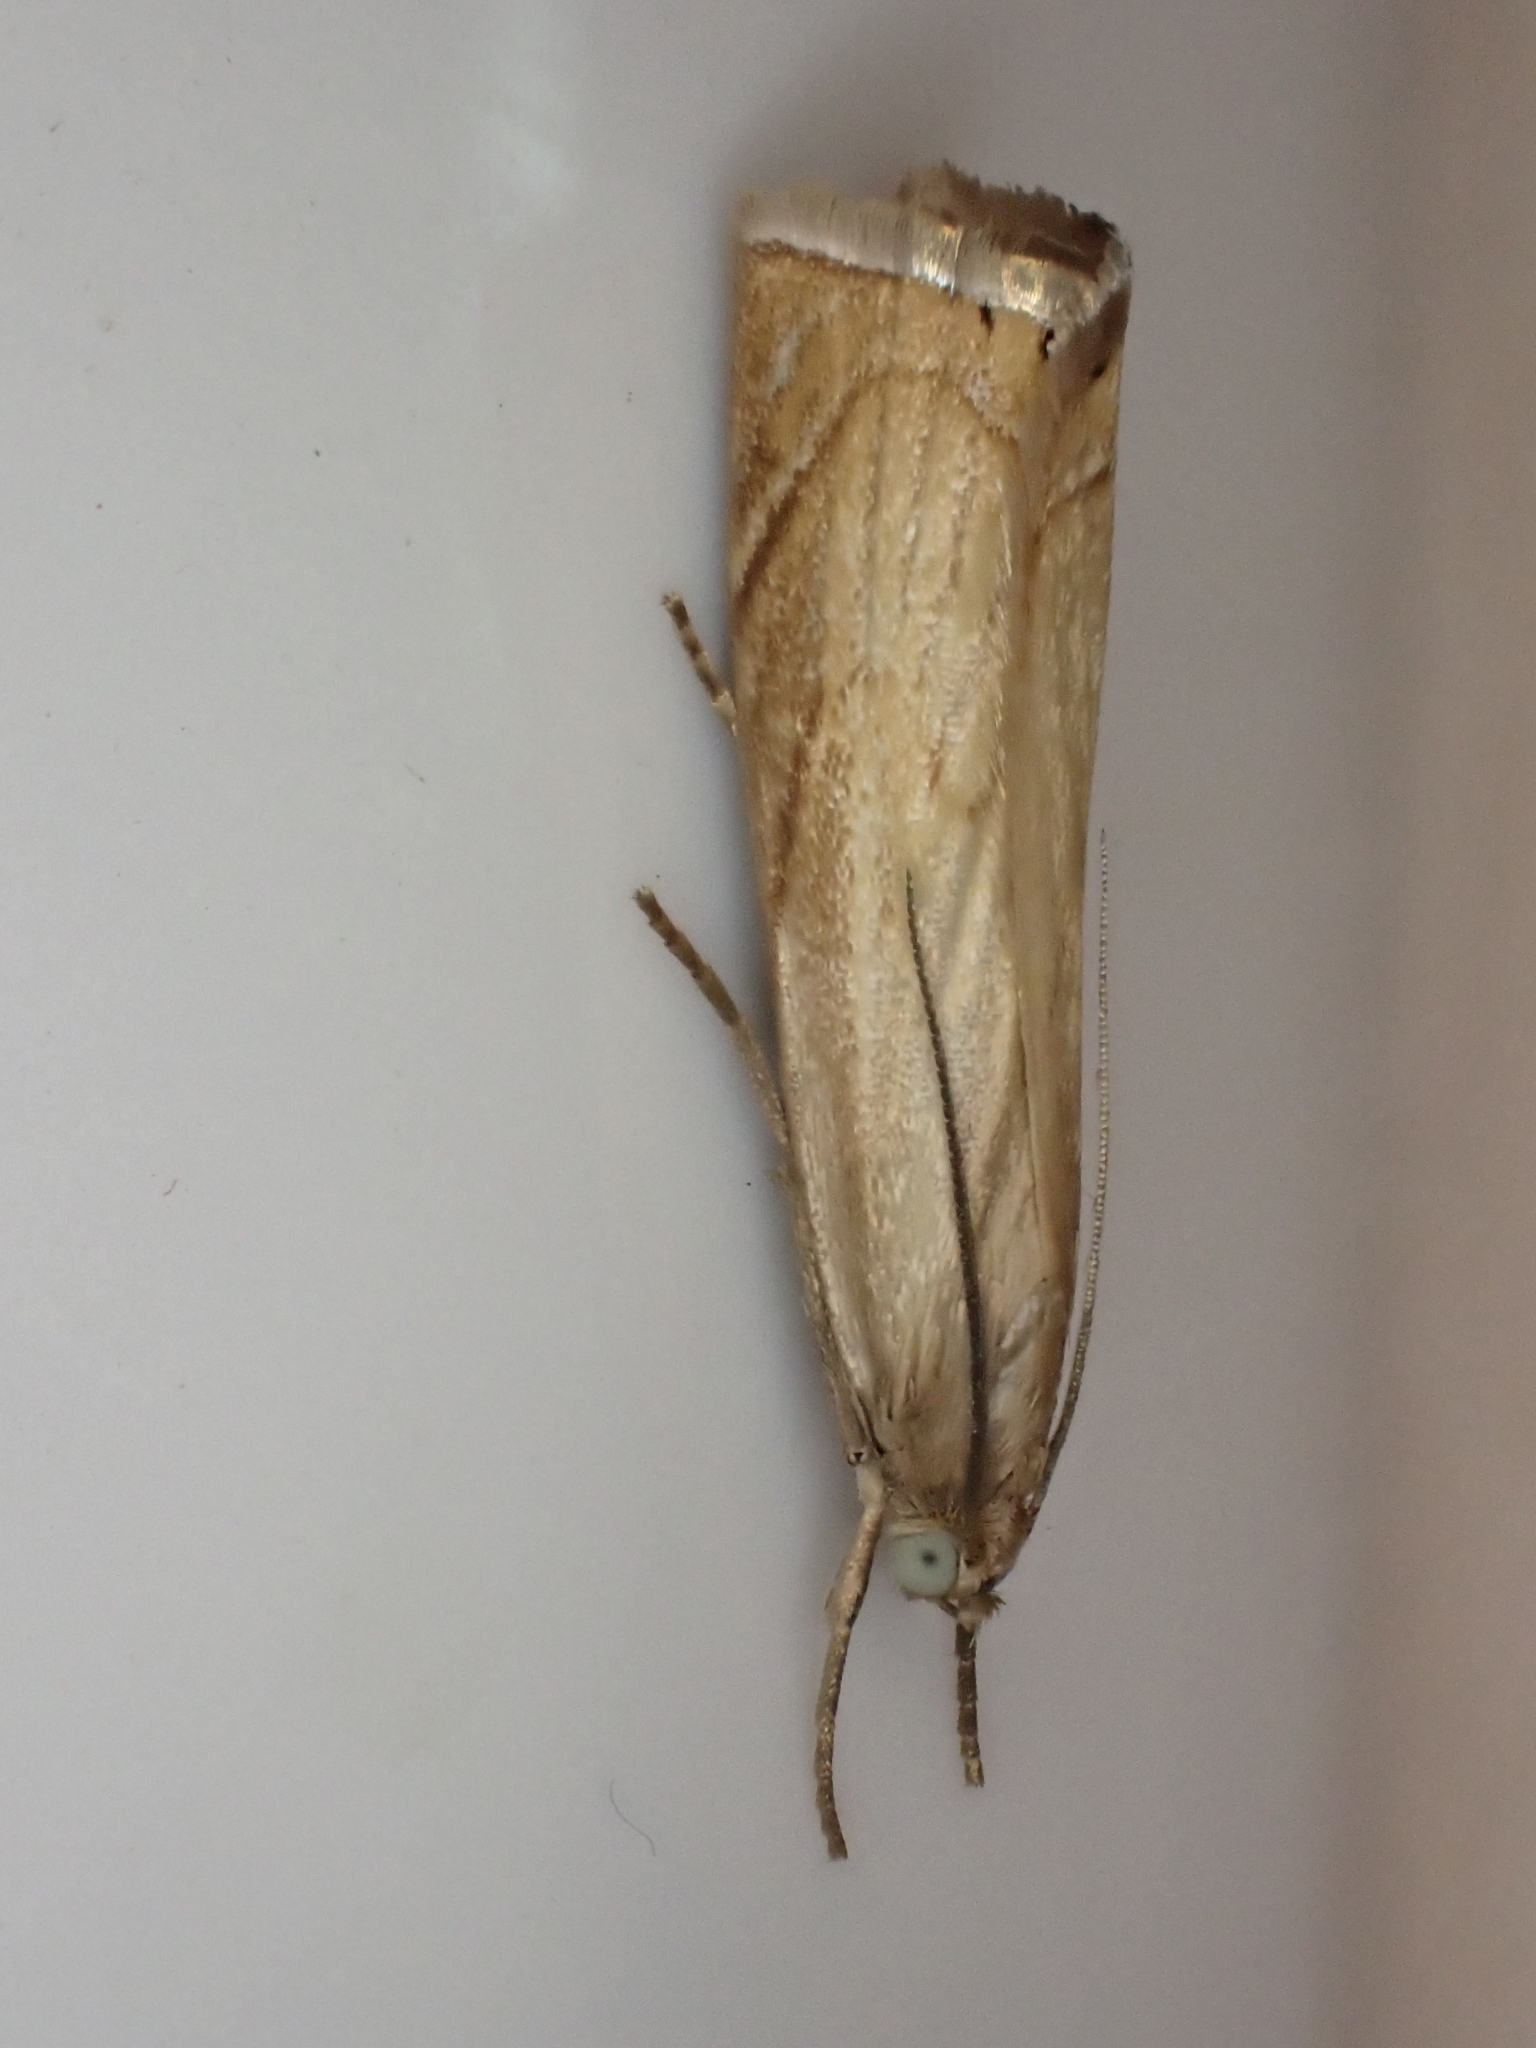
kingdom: Animalia
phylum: Arthropoda
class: Insecta
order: Lepidoptera
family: Crambidae
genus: Chrysoteuchia
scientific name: Chrysoteuchia culmella
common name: Garden grass-veneer
